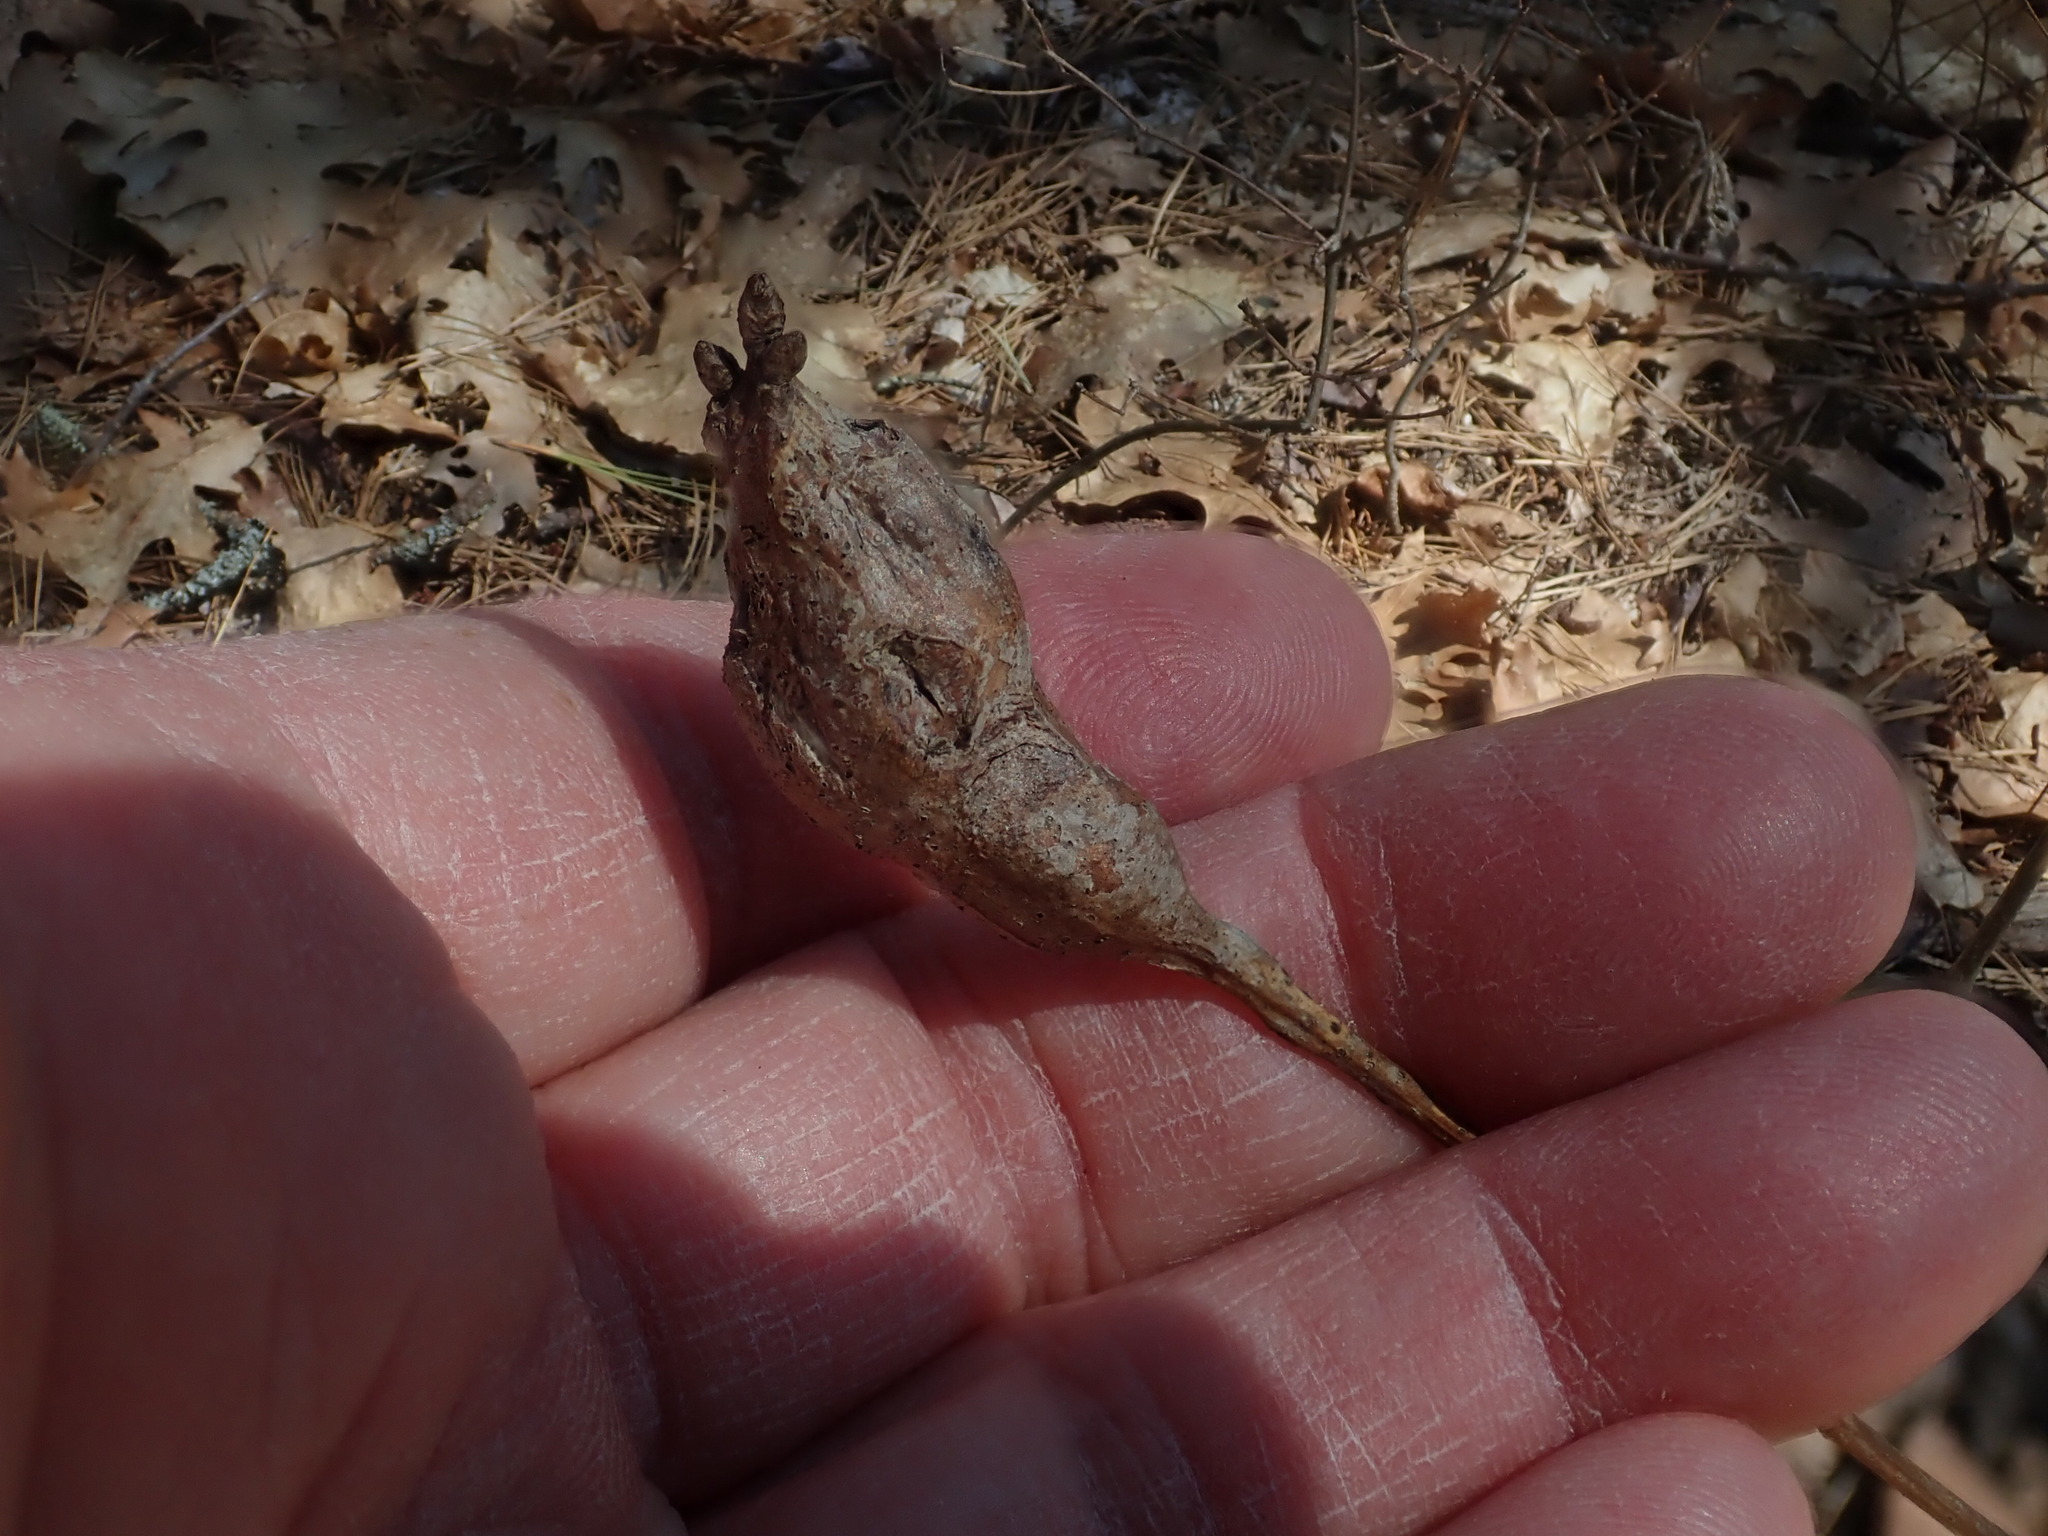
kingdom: Animalia
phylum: Arthropoda
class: Insecta
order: Hymenoptera
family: Cynipidae
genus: Neuroterus
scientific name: Neuroterus quercusbaccarum
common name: Common spangle gall
